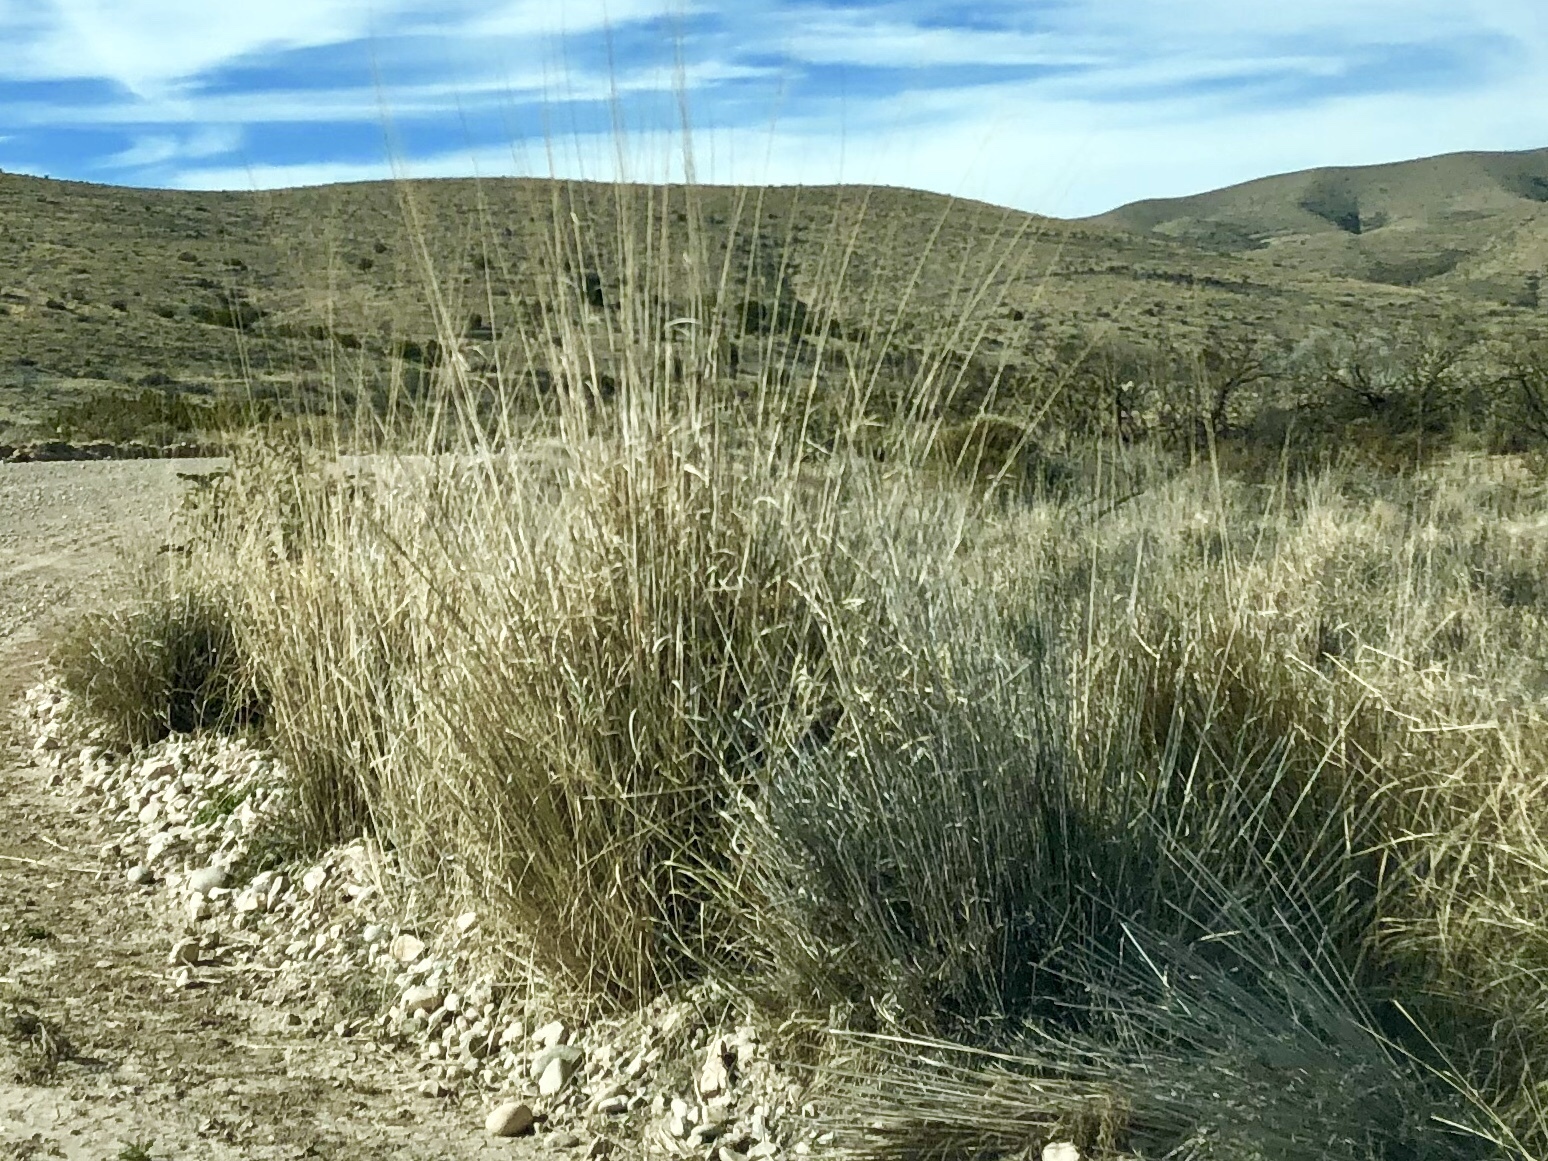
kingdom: Plantae
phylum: Tracheophyta
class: Liliopsida
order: Poales
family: Poaceae
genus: Sporobolus
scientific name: Sporobolus wrightii
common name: Big alkali sacaton
